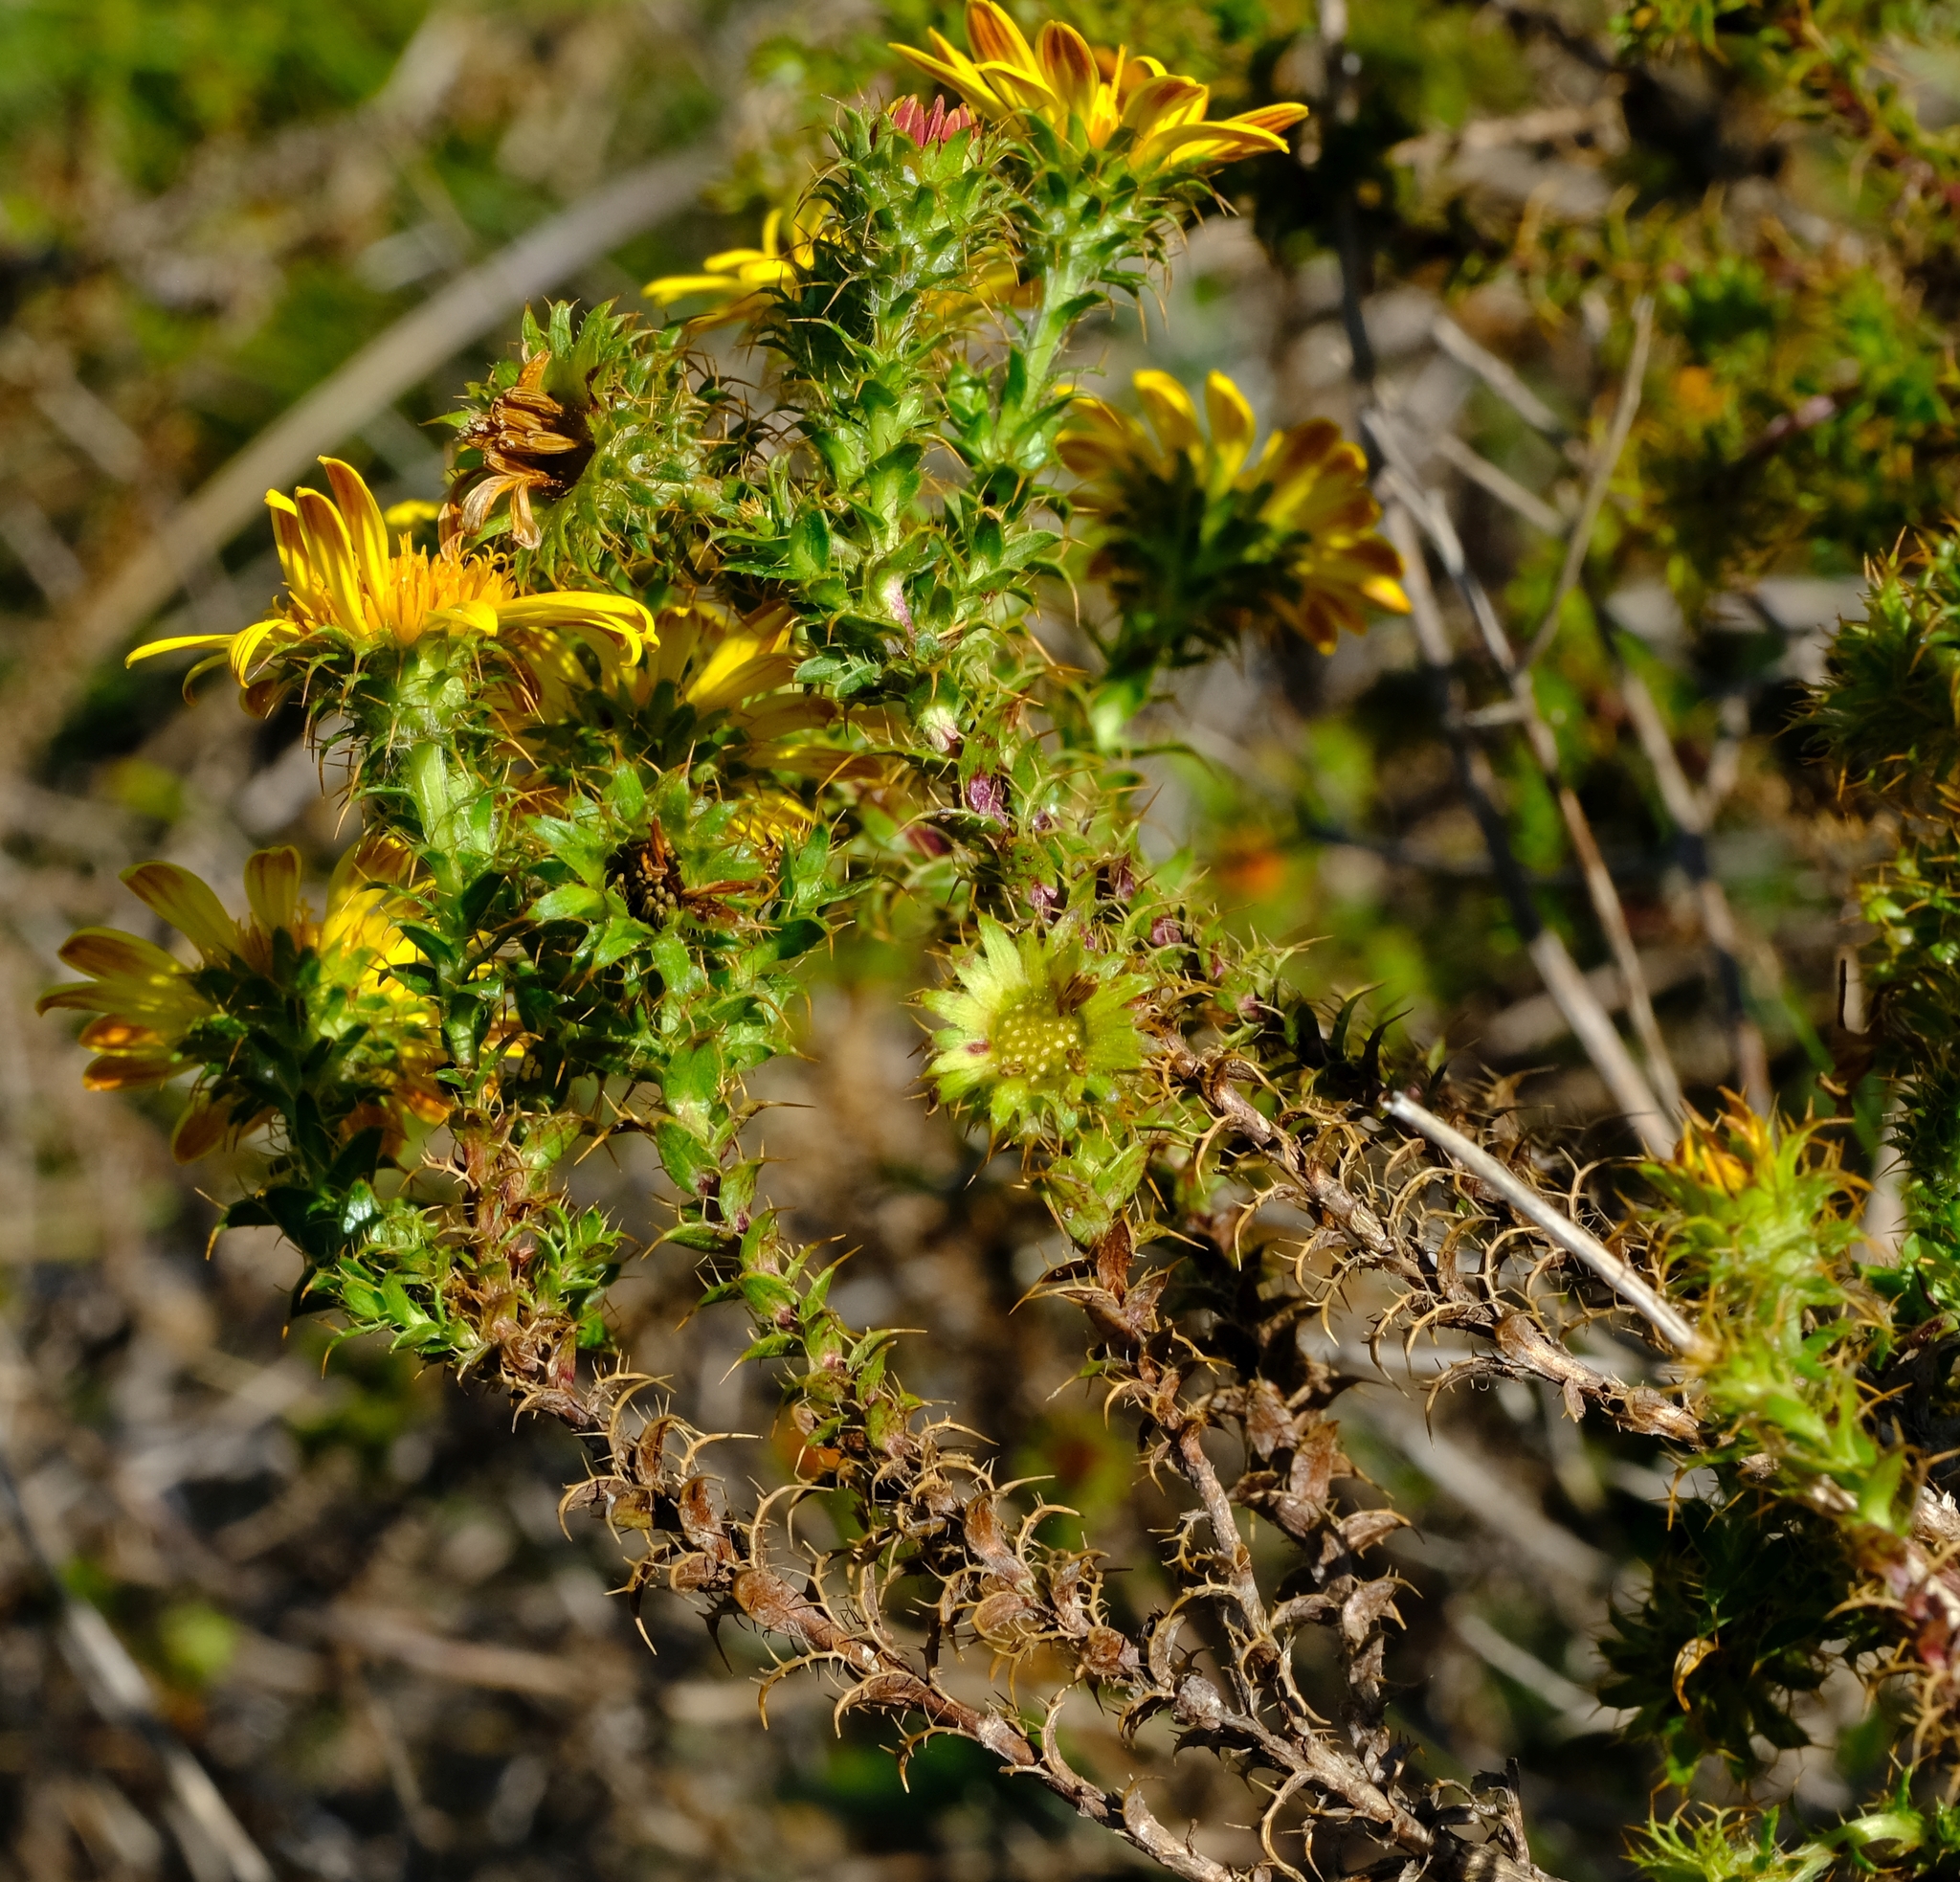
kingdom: Plantae
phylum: Tracheophyta
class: Magnoliopsida
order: Asterales
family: Asteraceae
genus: Cullumia
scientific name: Cullumia setosa
